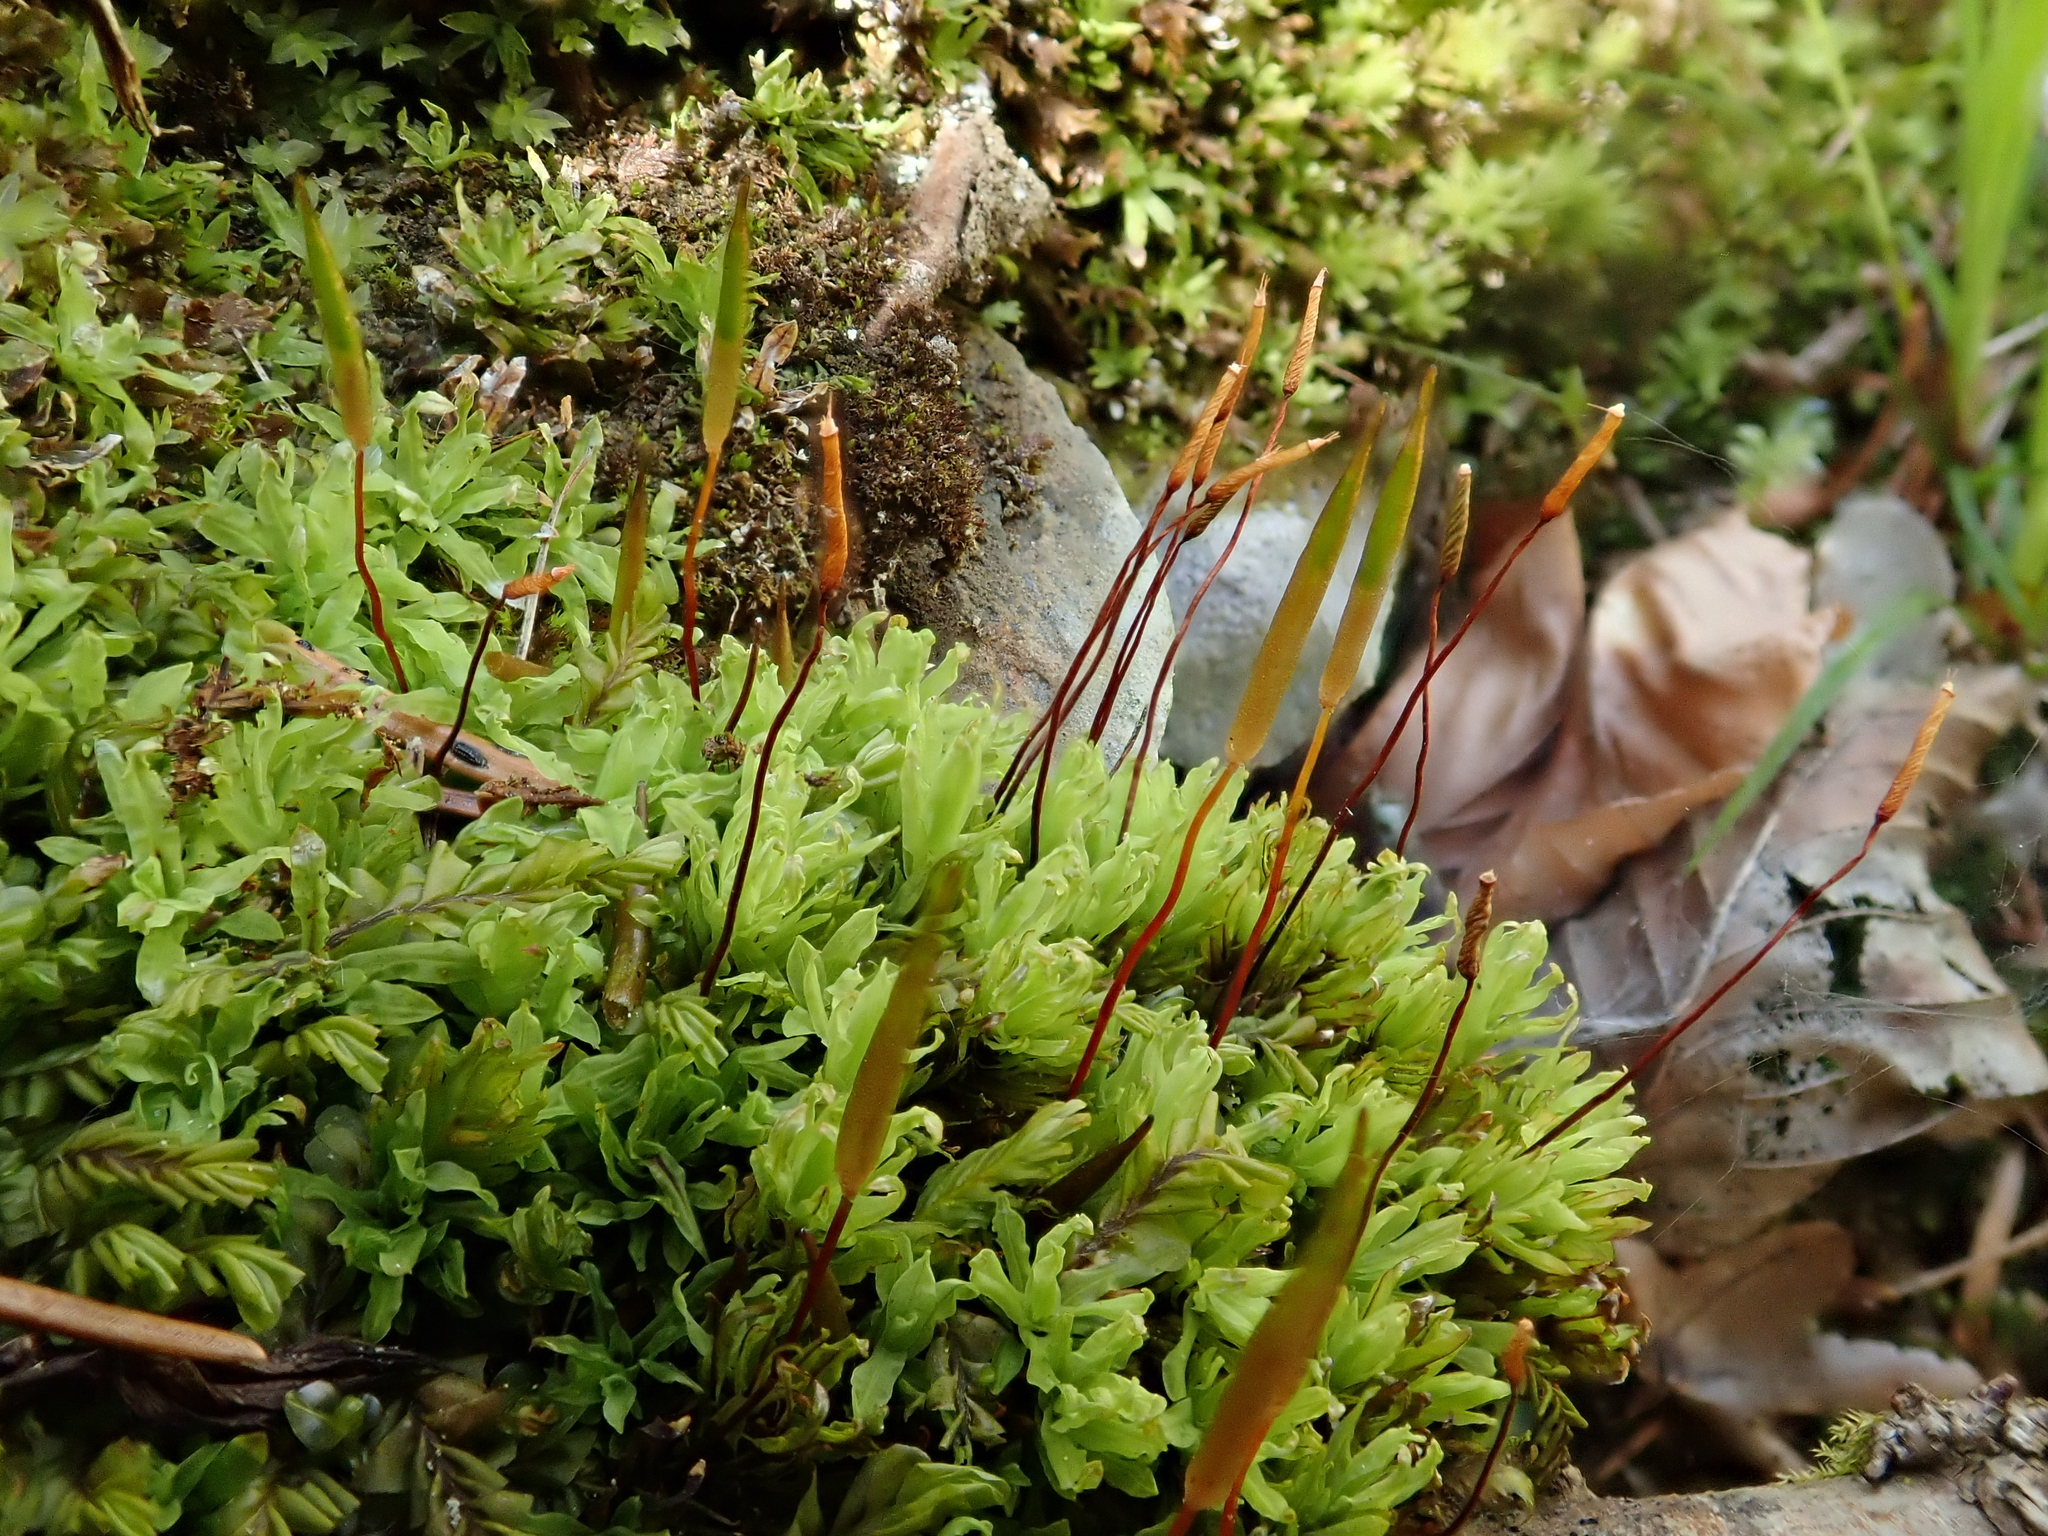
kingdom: Plantae
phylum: Bryophyta
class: Bryopsida
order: Encalyptales
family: Encalyptaceae
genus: Encalypta
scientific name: Encalypta streptocarpa
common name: Spiral extinguisher-moss
